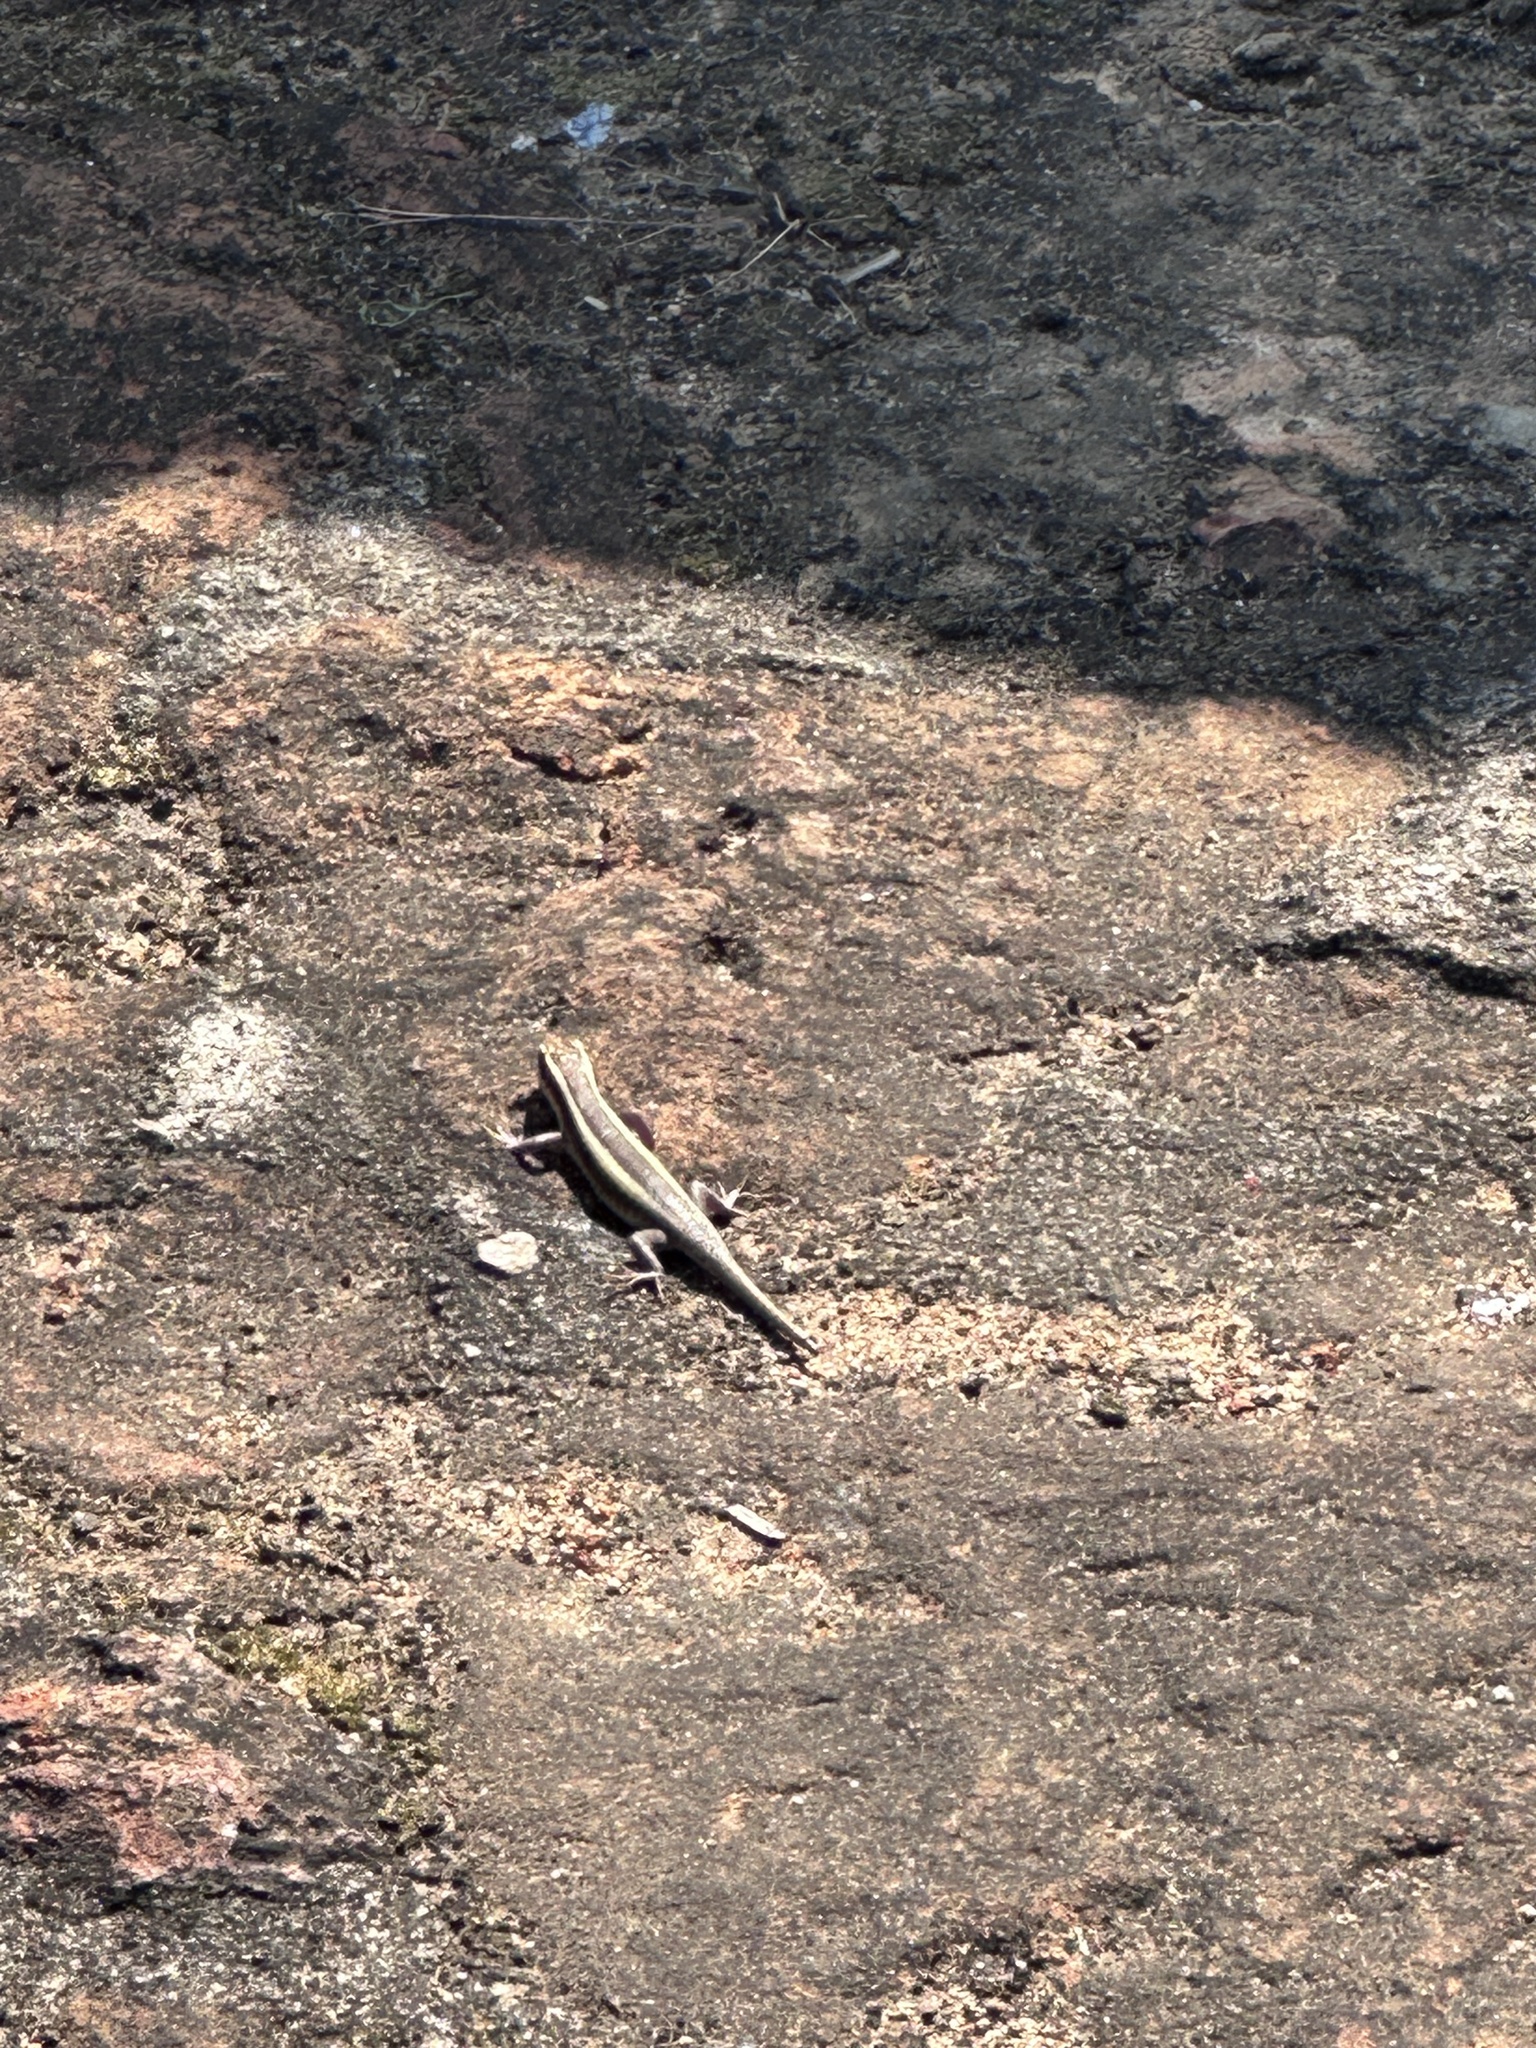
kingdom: Animalia
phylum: Chordata
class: Squamata
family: Scincidae
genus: Trachylepis
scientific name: Trachylepis striata
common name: African striped mabuya
